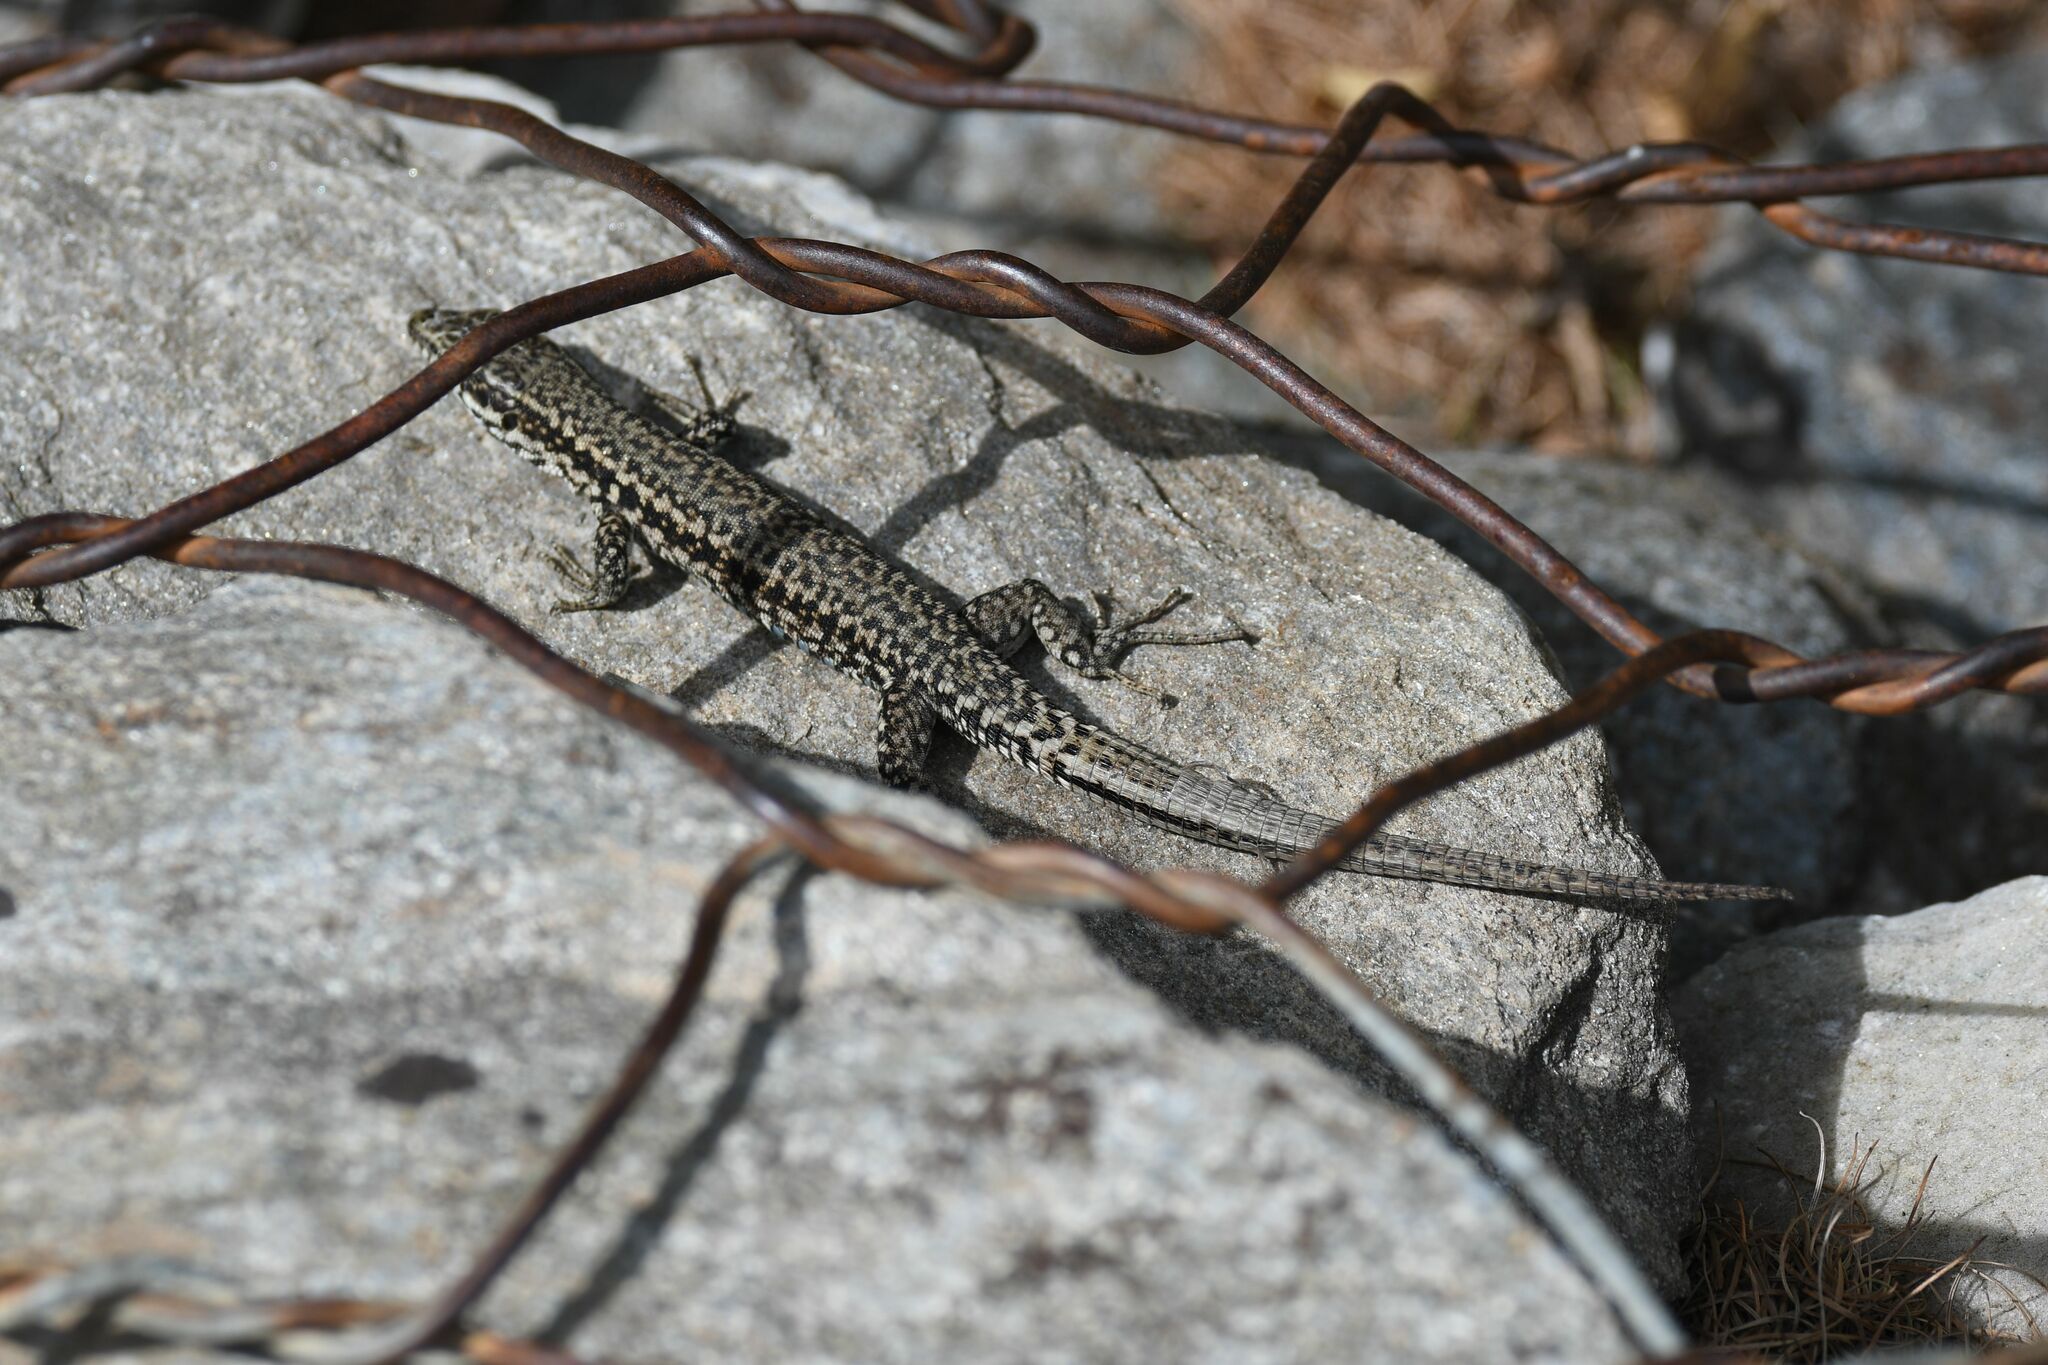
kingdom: Animalia
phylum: Chordata
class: Squamata
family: Lacertidae
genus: Podarcis
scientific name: Podarcis muralis
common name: Common wall lizard
